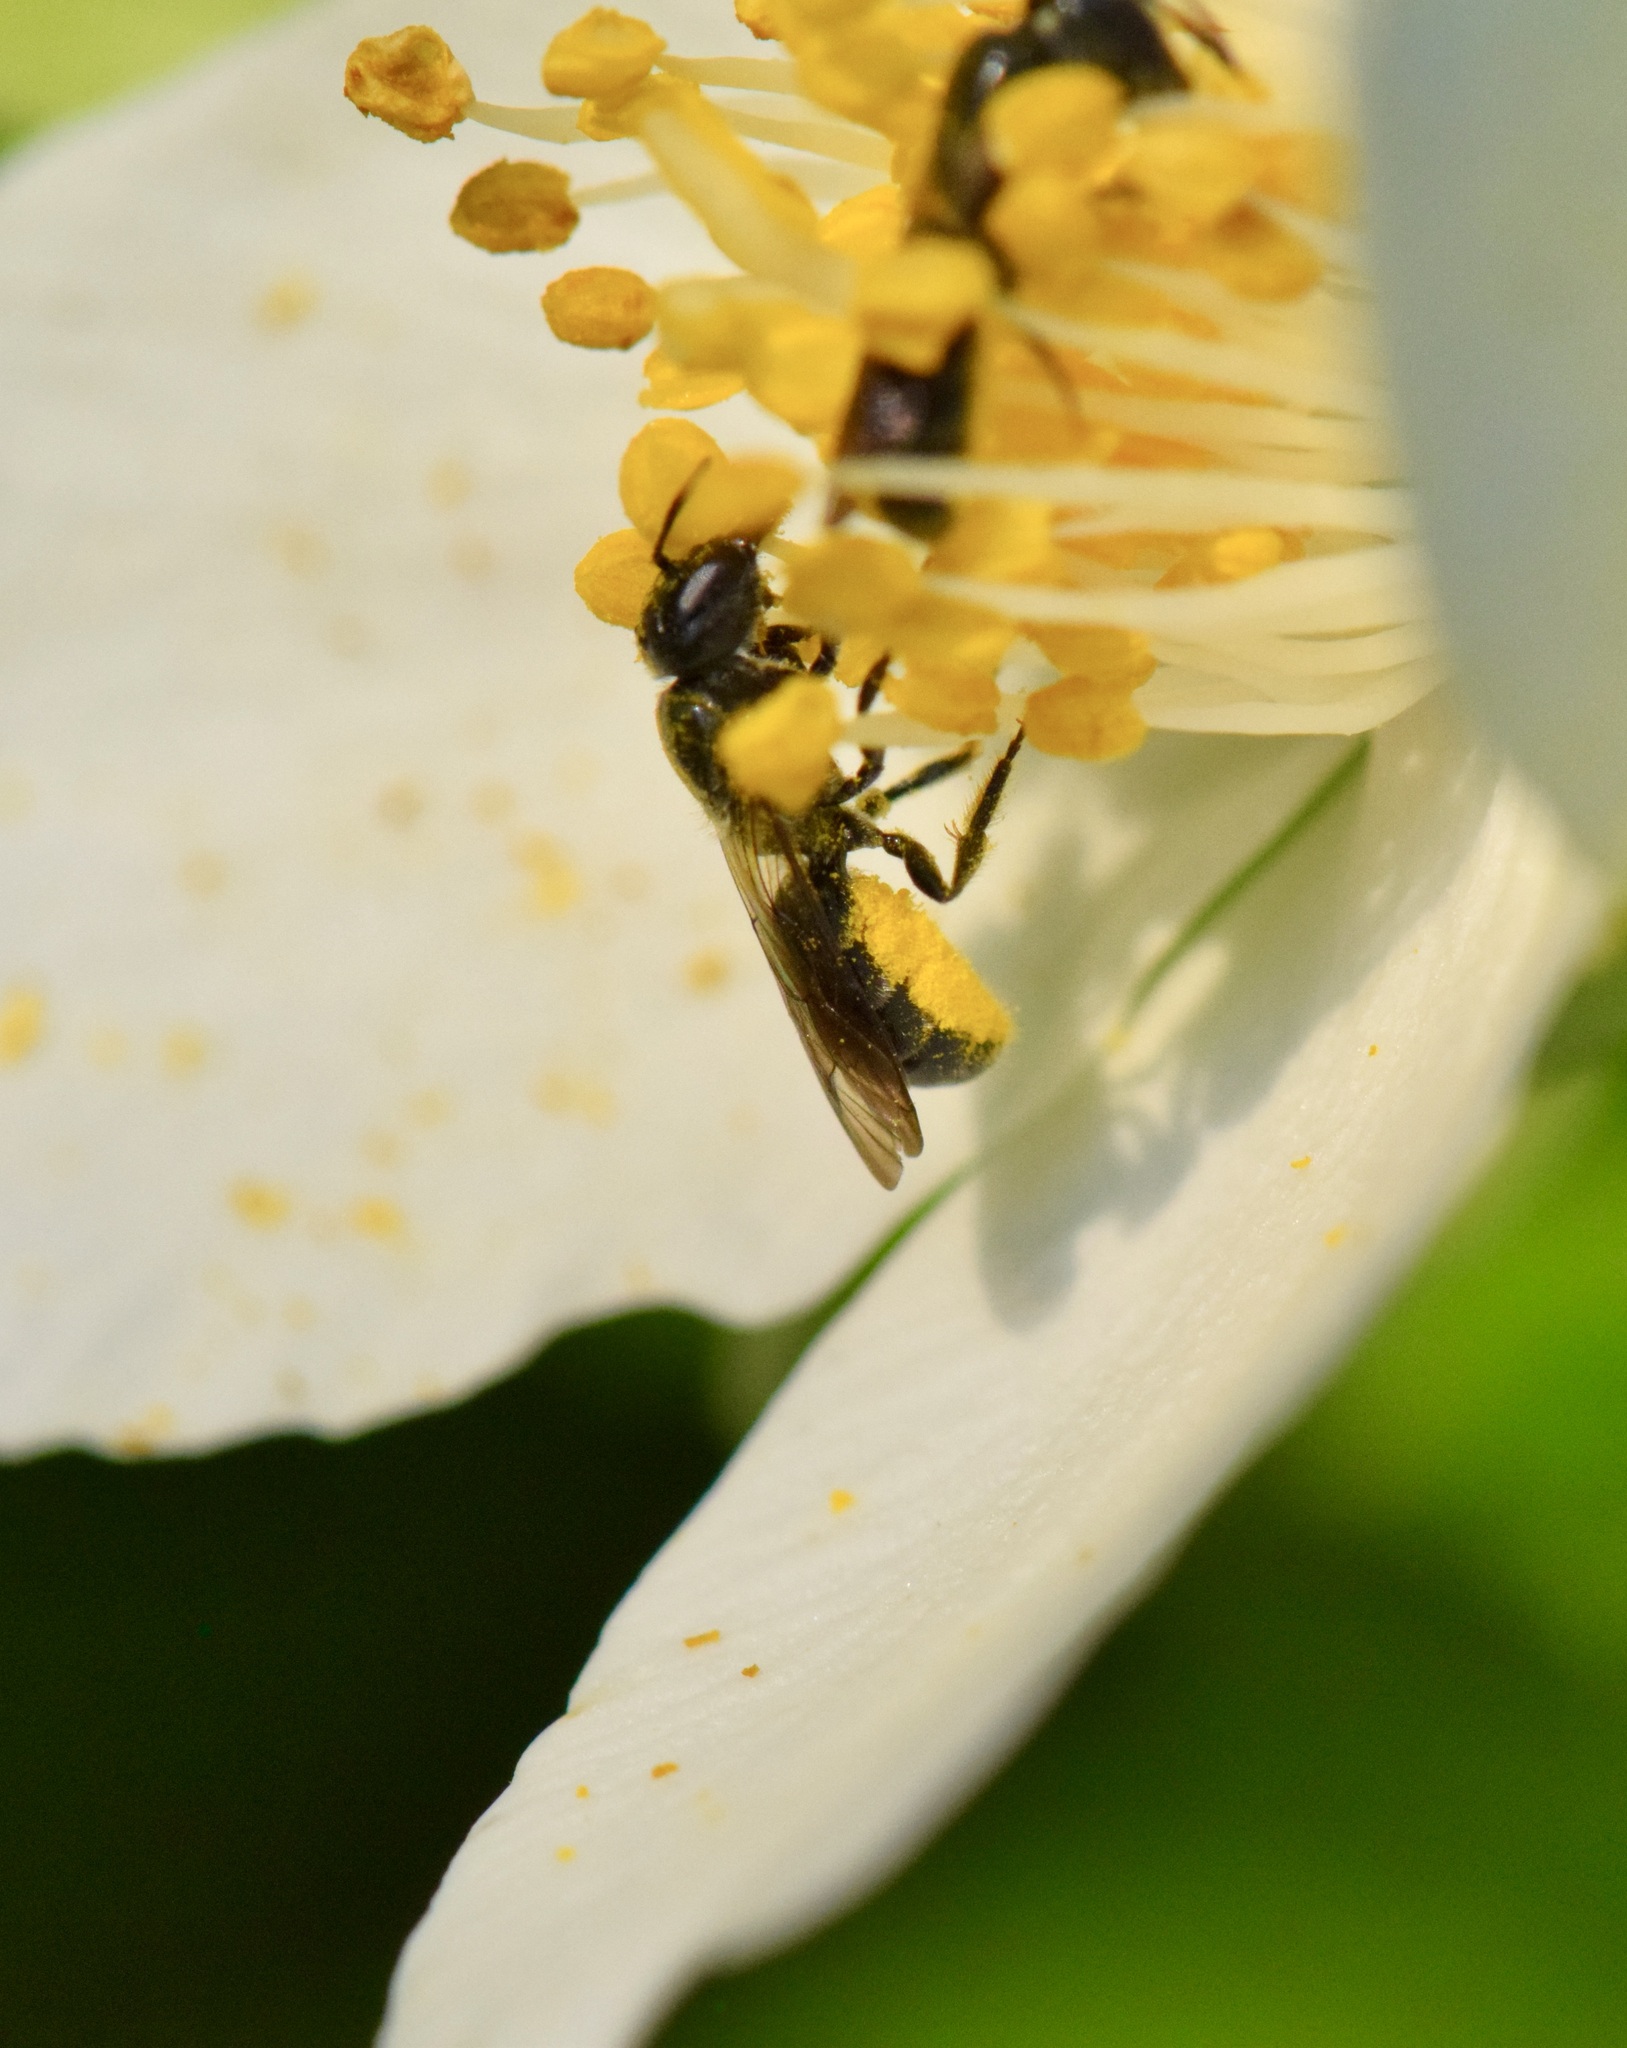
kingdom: Animalia
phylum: Arthropoda
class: Insecta
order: Hymenoptera
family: Megachilidae
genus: Chelostoma
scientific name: Chelostoma philadelphi
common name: Mock-orange scissor bee
